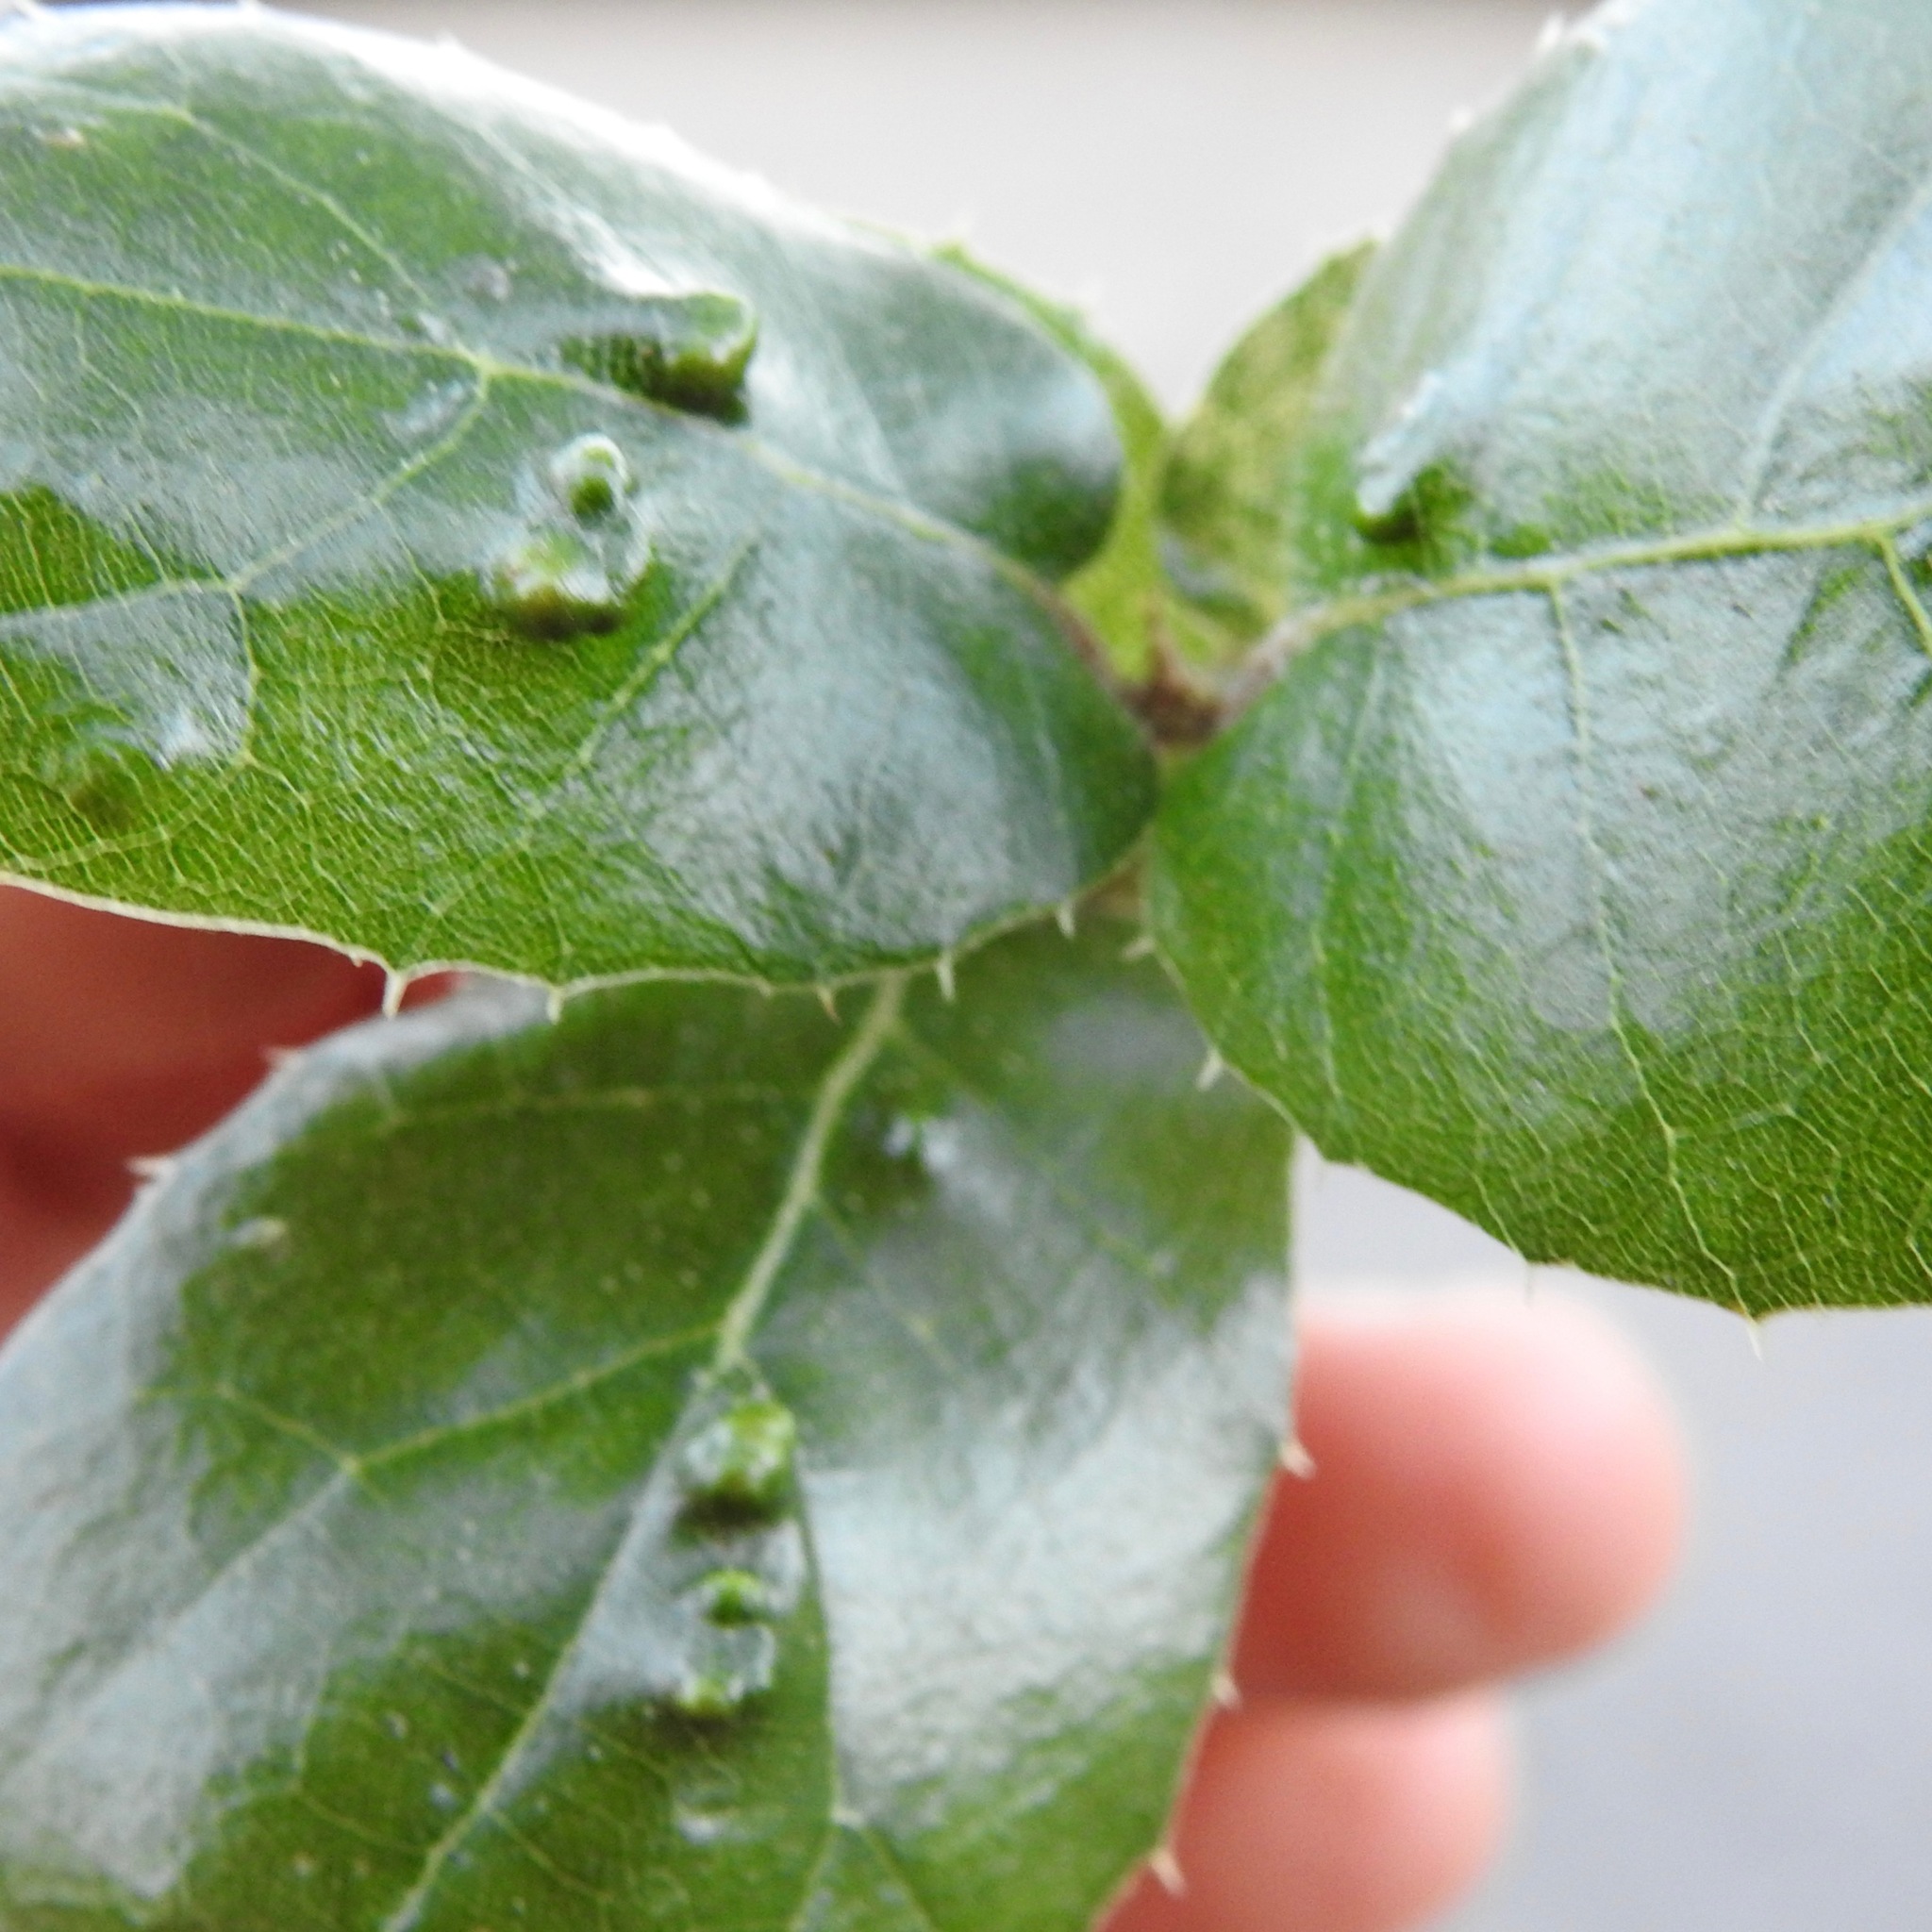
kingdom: Animalia
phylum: Arthropoda
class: Arachnida
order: Trombidiformes
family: Eriophyidae
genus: Aceria
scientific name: Aceria
